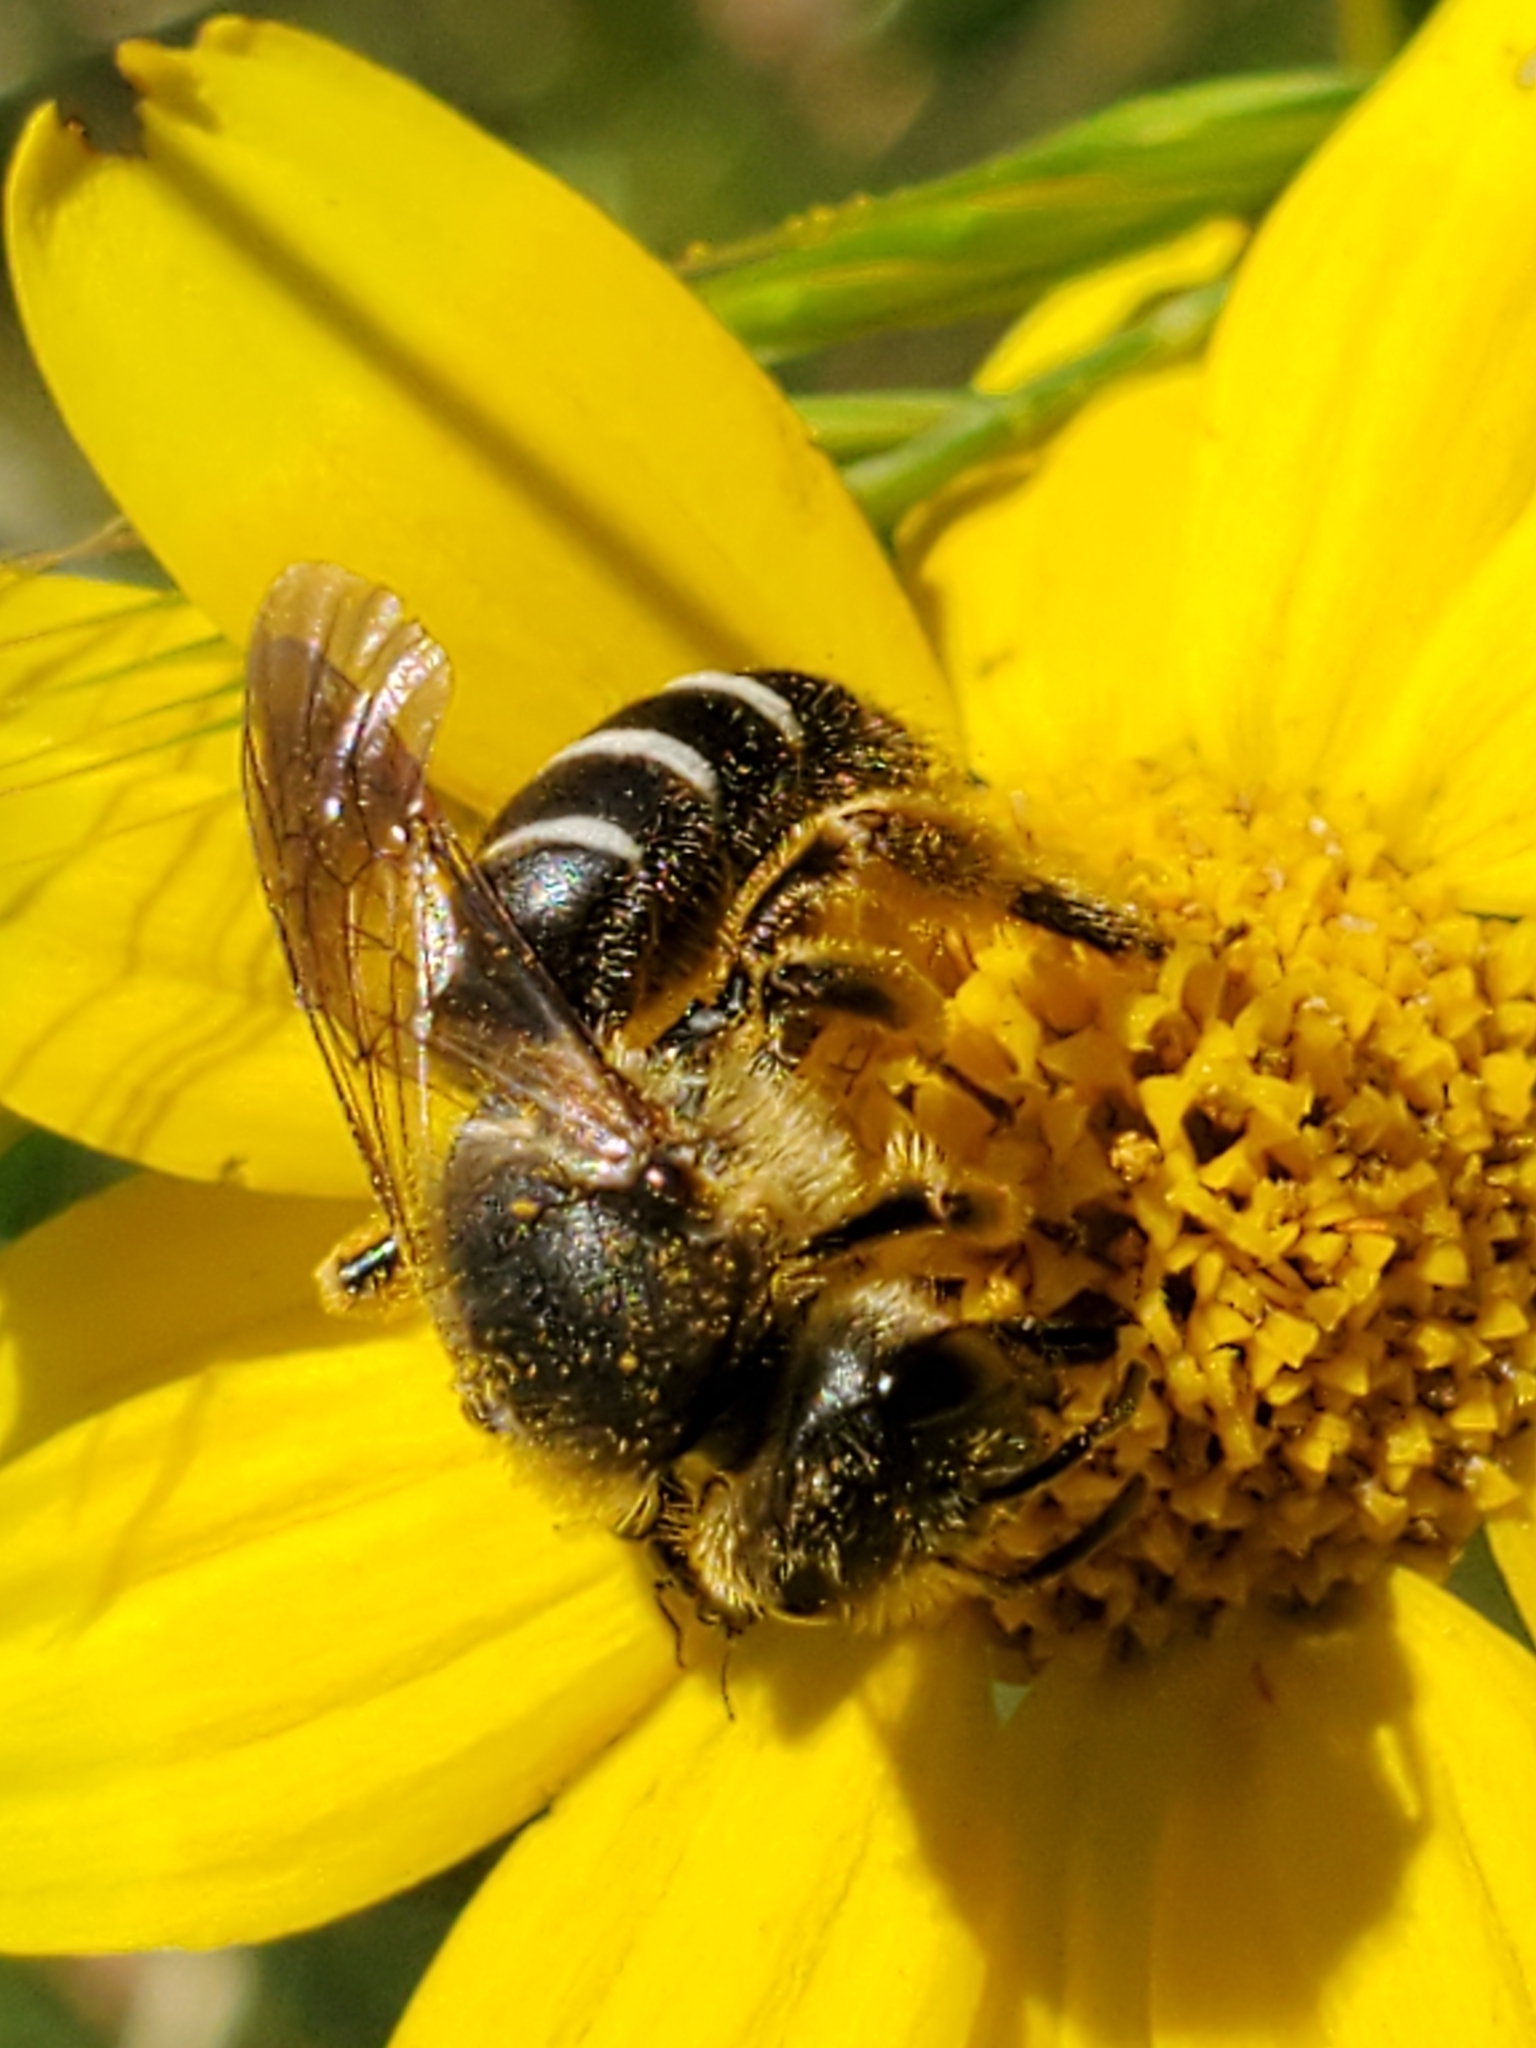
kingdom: Animalia
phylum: Arthropoda
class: Insecta
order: Hymenoptera
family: Halictidae
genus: Halictus
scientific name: Halictus rubicundus
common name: Orange-legged furrow bee
